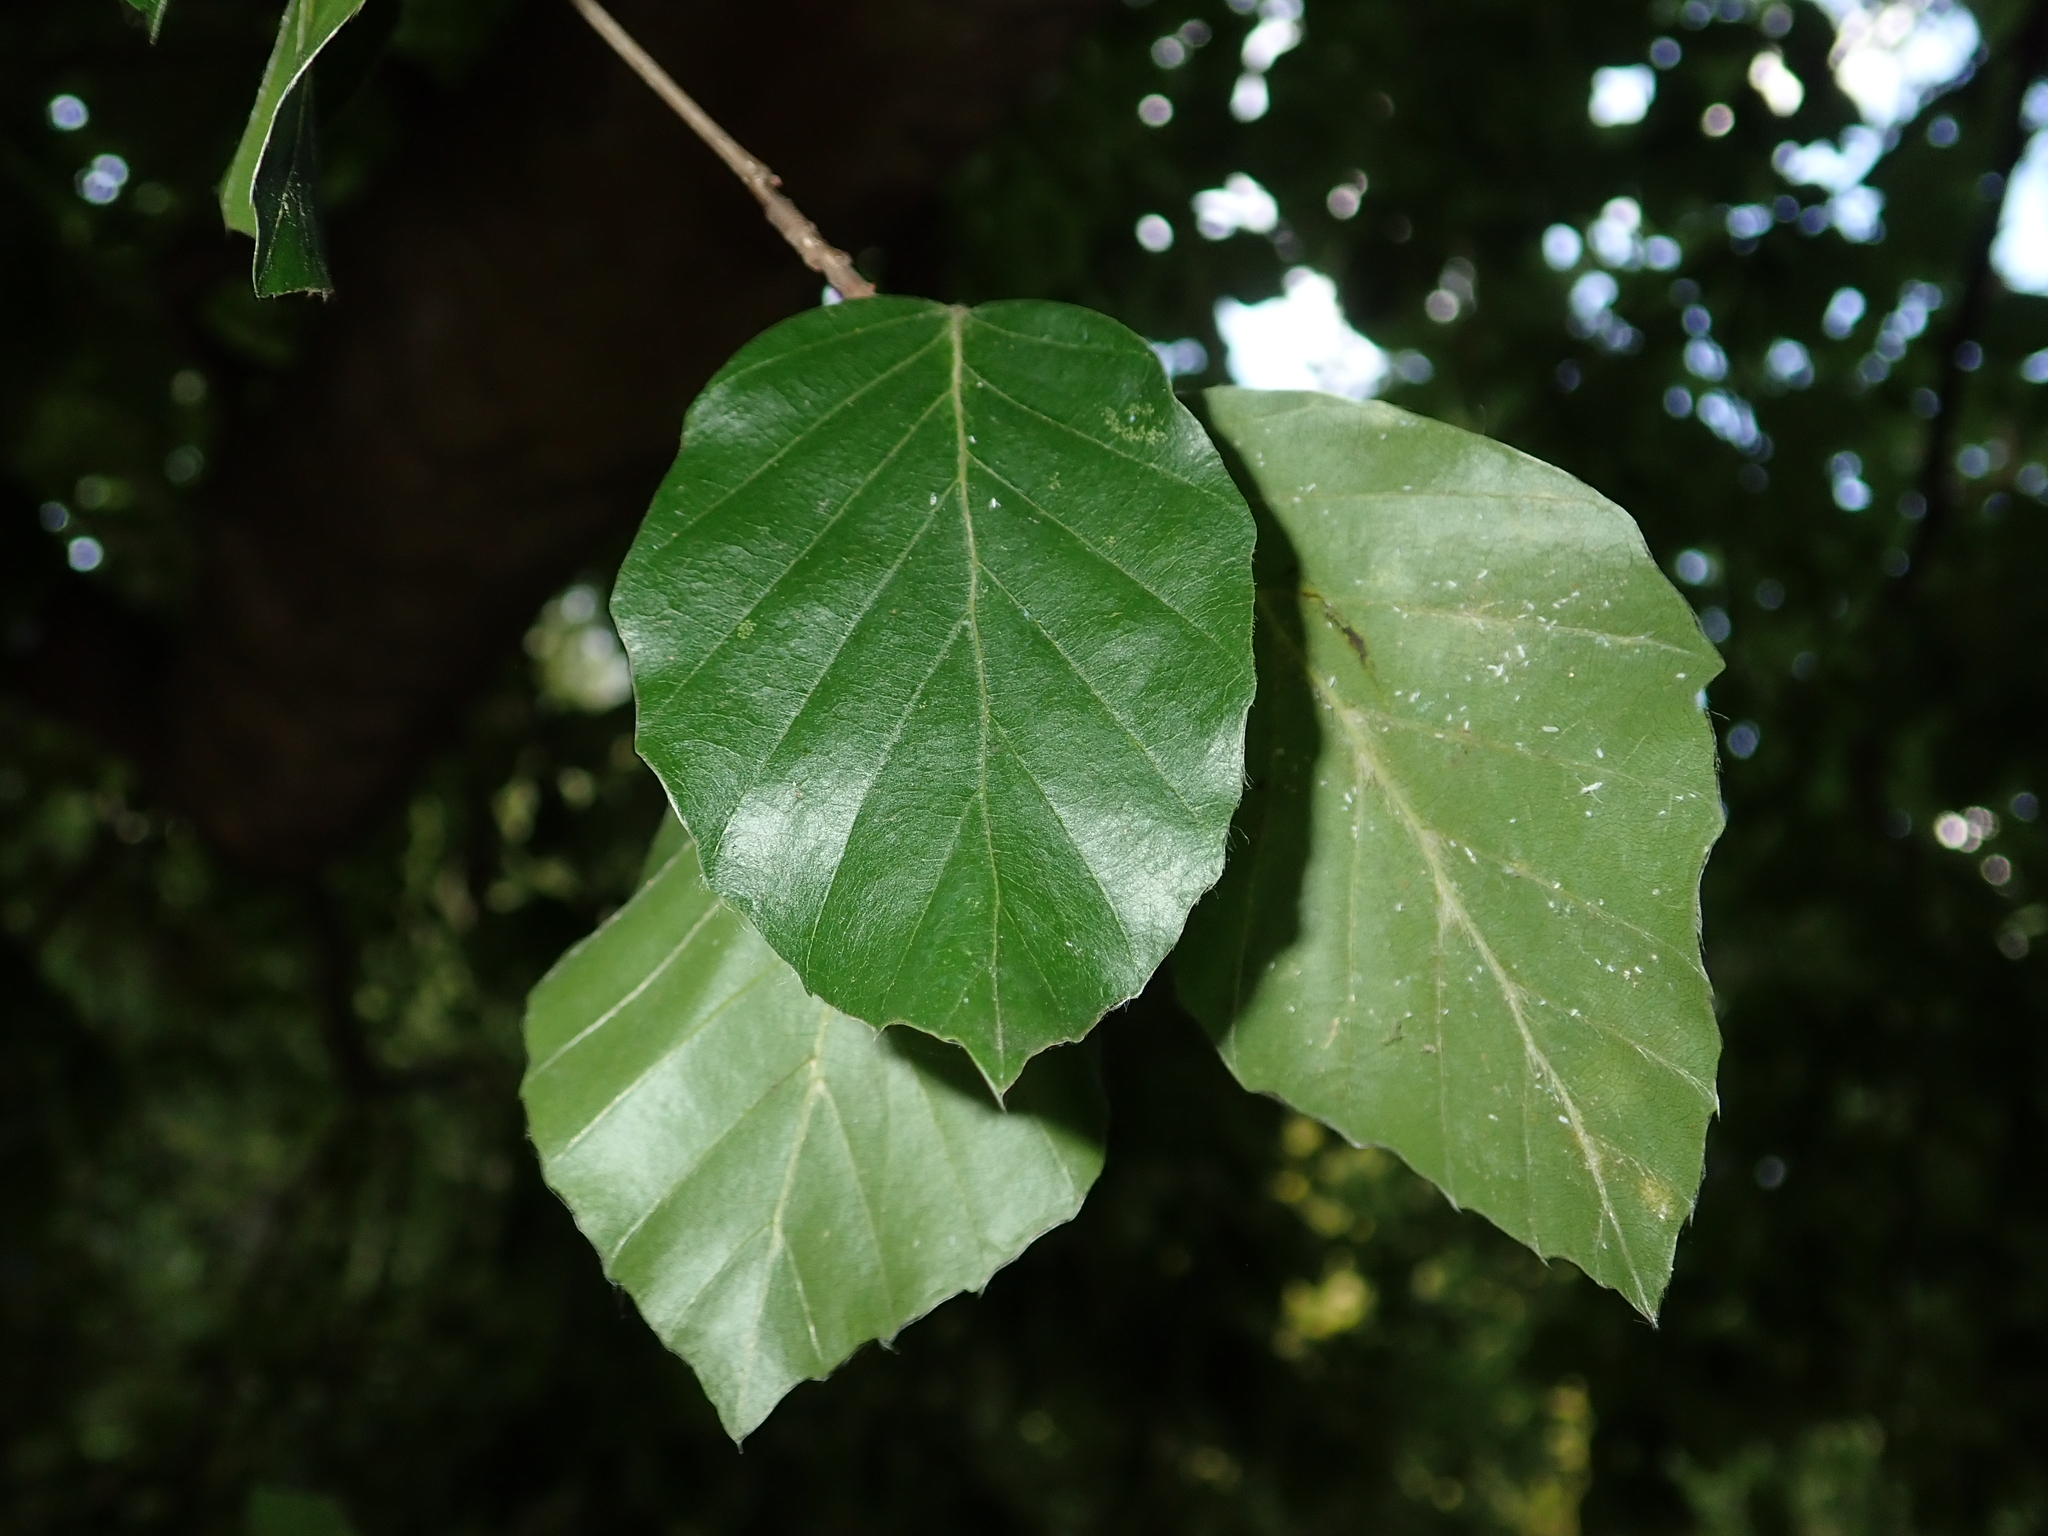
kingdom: Plantae
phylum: Tracheophyta
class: Magnoliopsida
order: Fagales
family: Fagaceae
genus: Fagus
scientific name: Fagus sylvatica
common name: Beech
